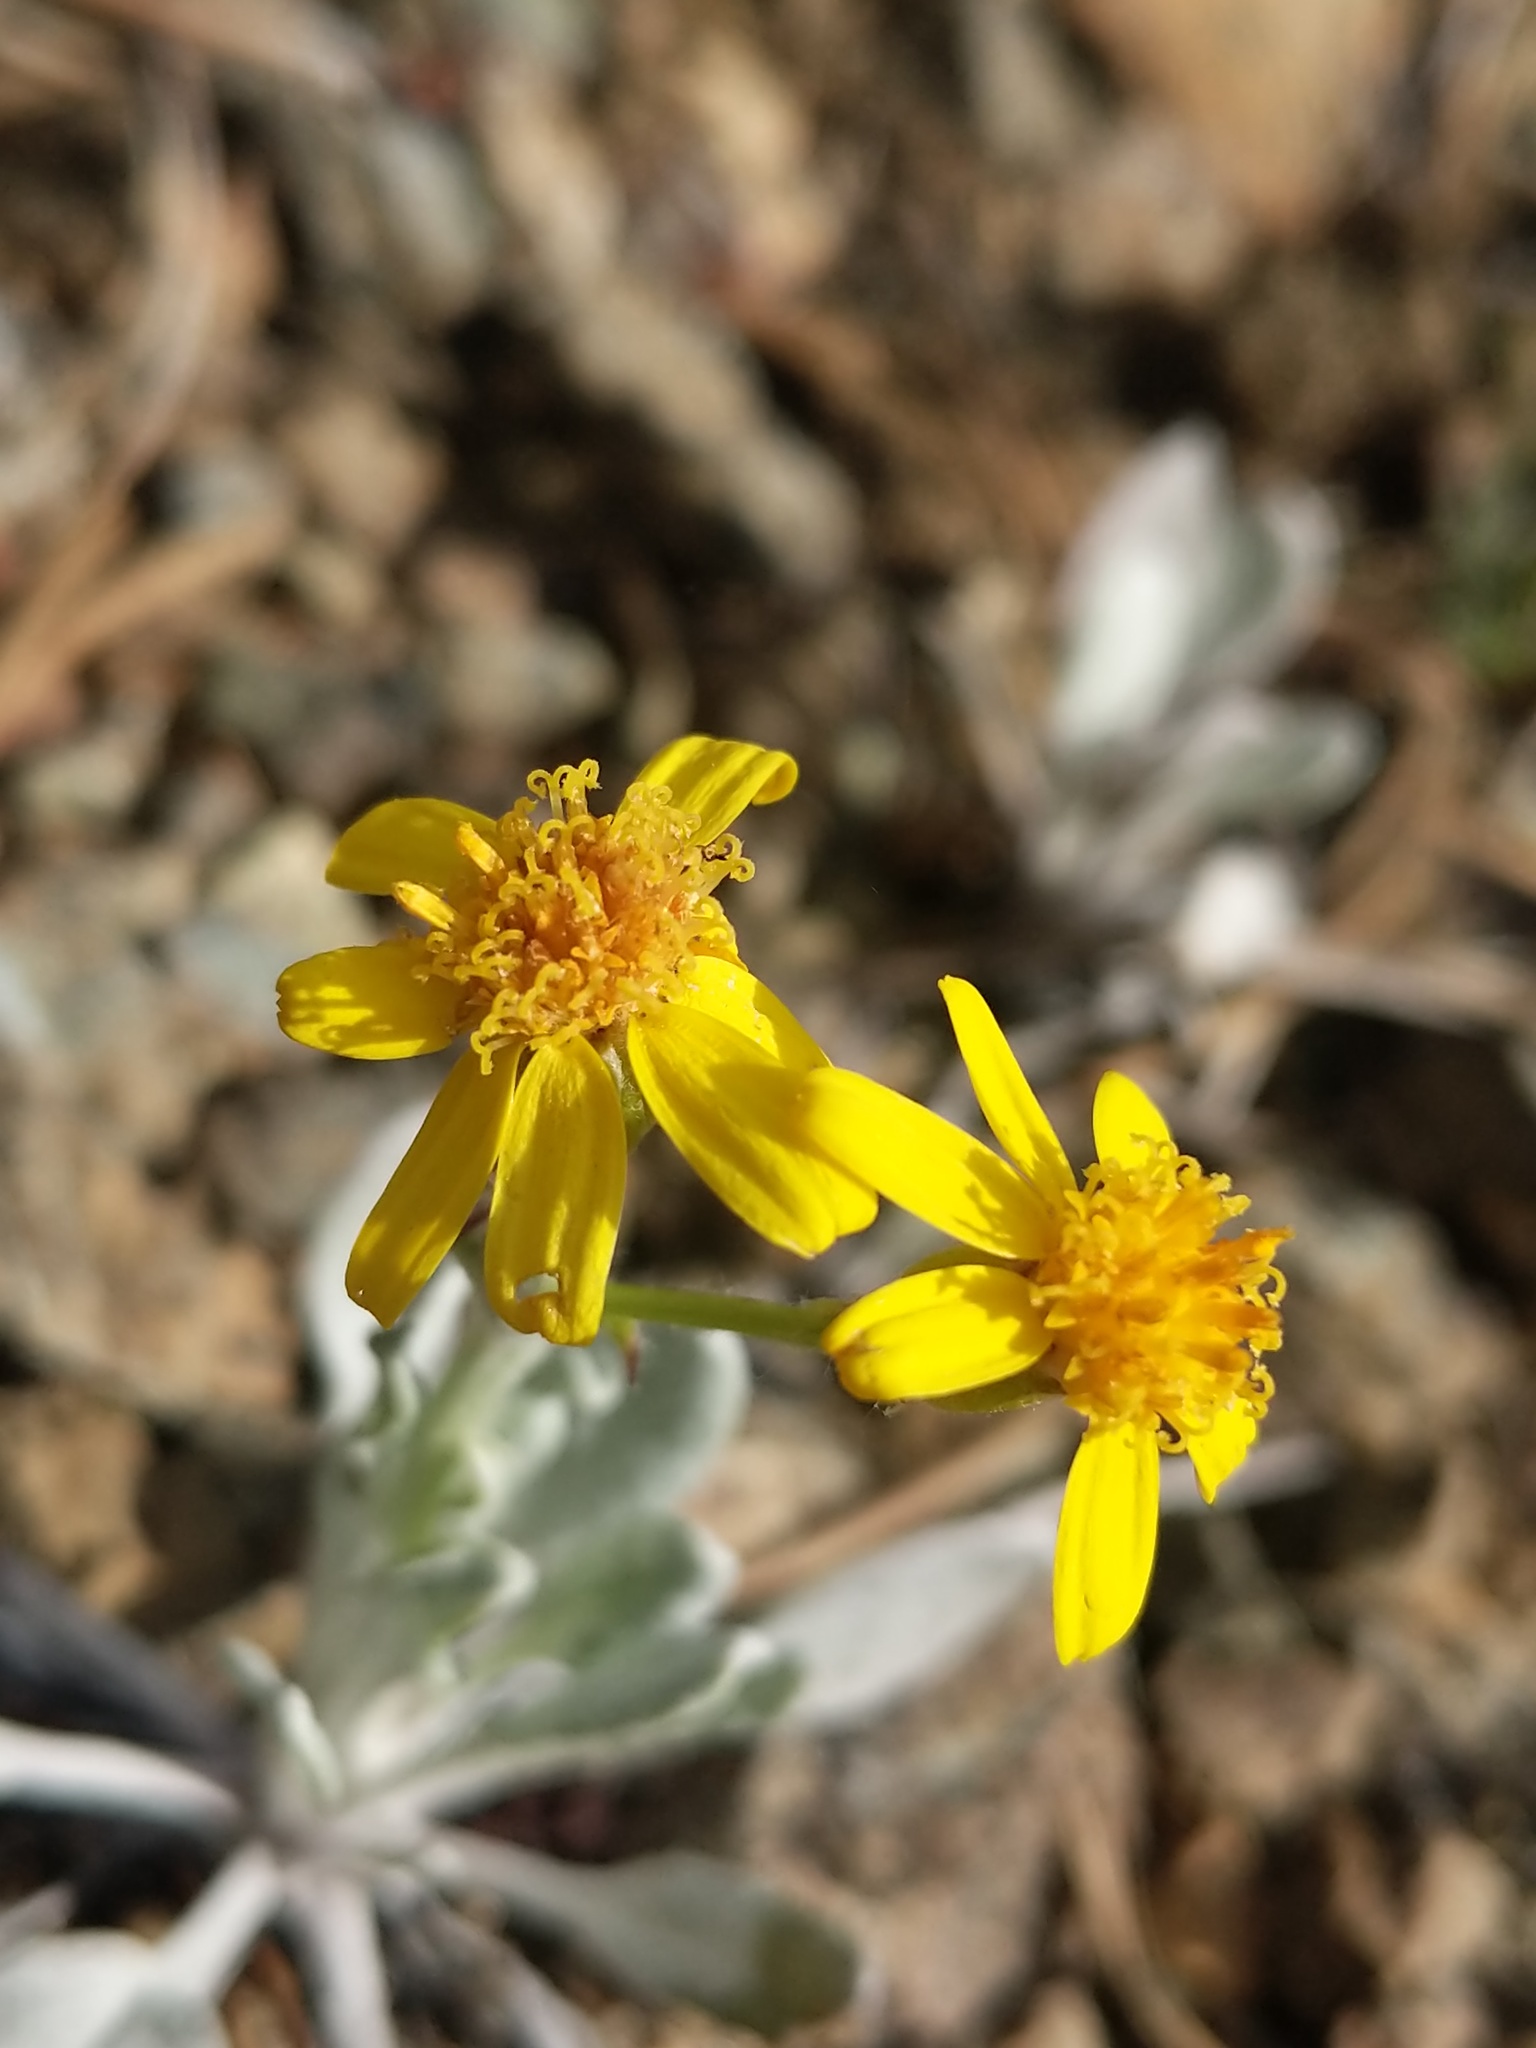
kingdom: Plantae
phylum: Tracheophyta
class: Magnoliopsida
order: Asterales
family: Asteraceae
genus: Packera
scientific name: Packera cana
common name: Woolly groundsel
